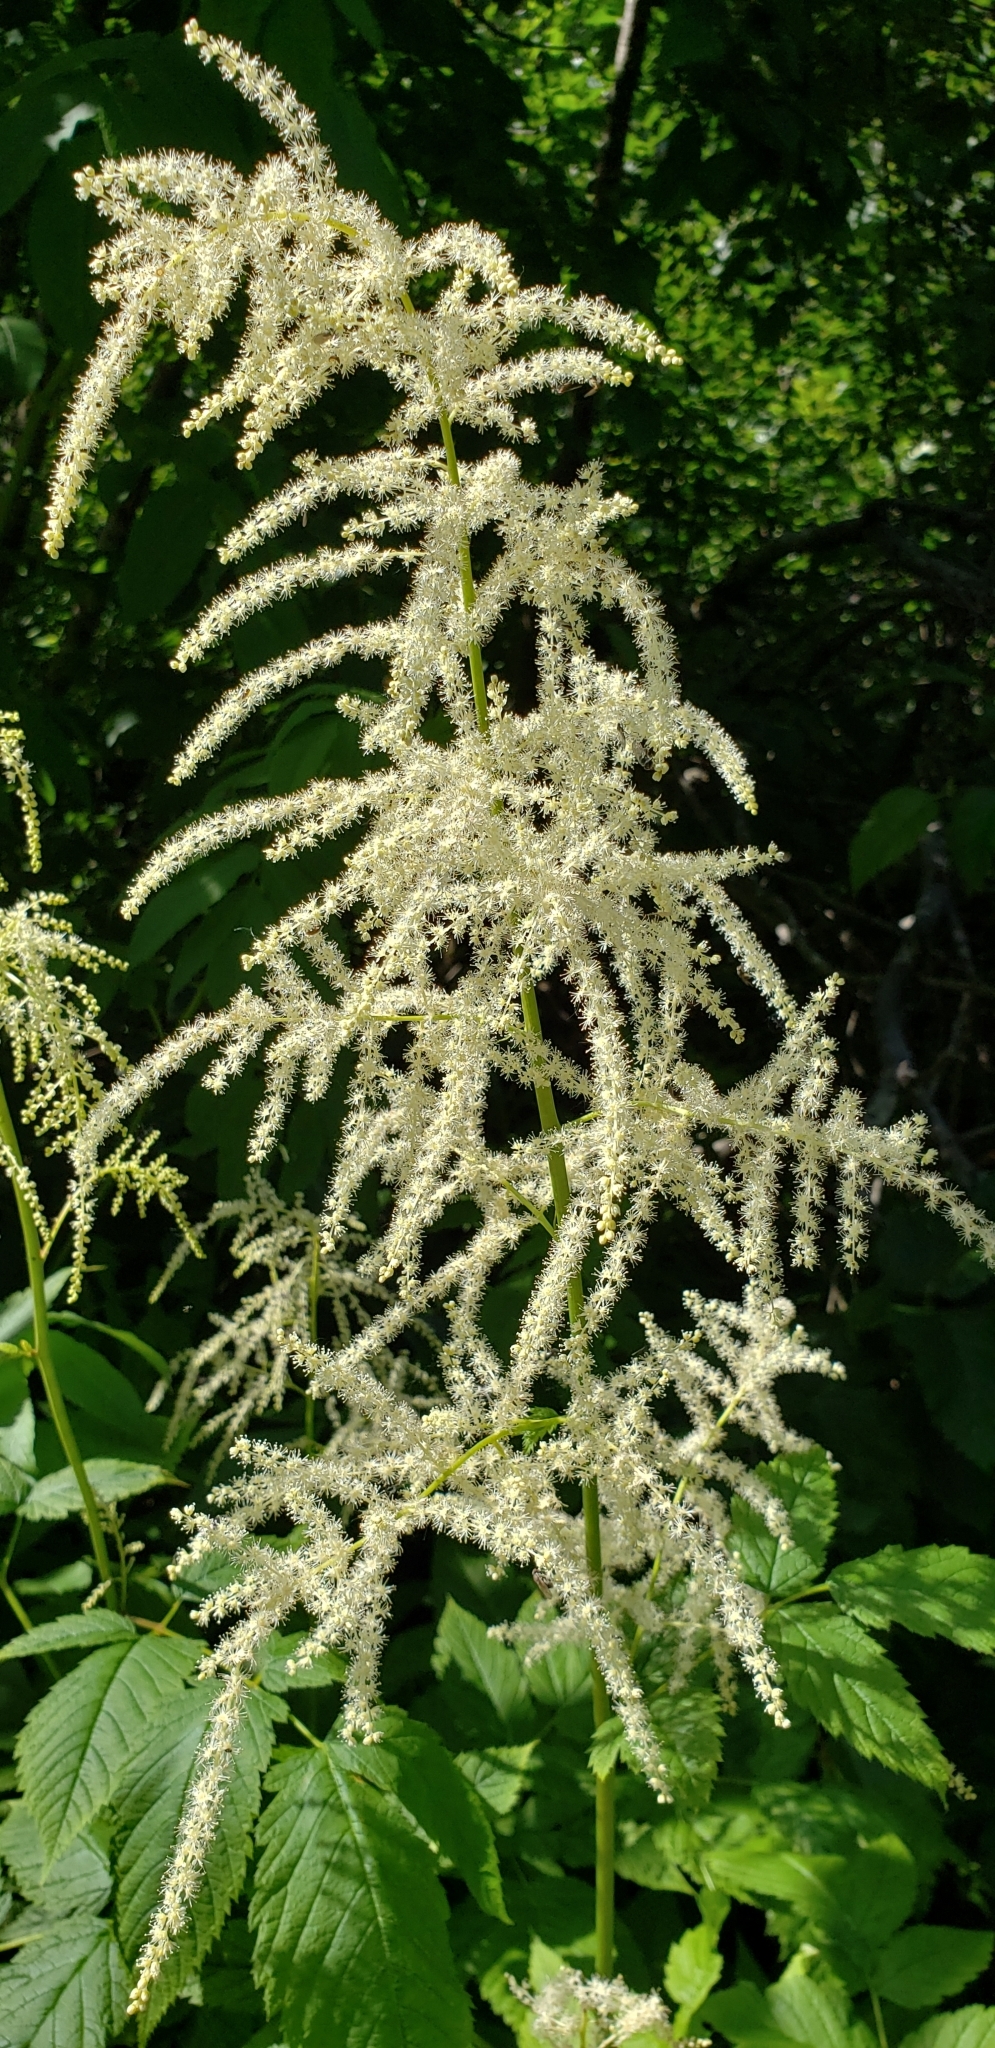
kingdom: Plantae
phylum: Tracheophyta
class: Magnoliopsida
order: Rosales
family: Rosaceae
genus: Aruncus
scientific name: Aruncus dioicus
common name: Buck's-beard
